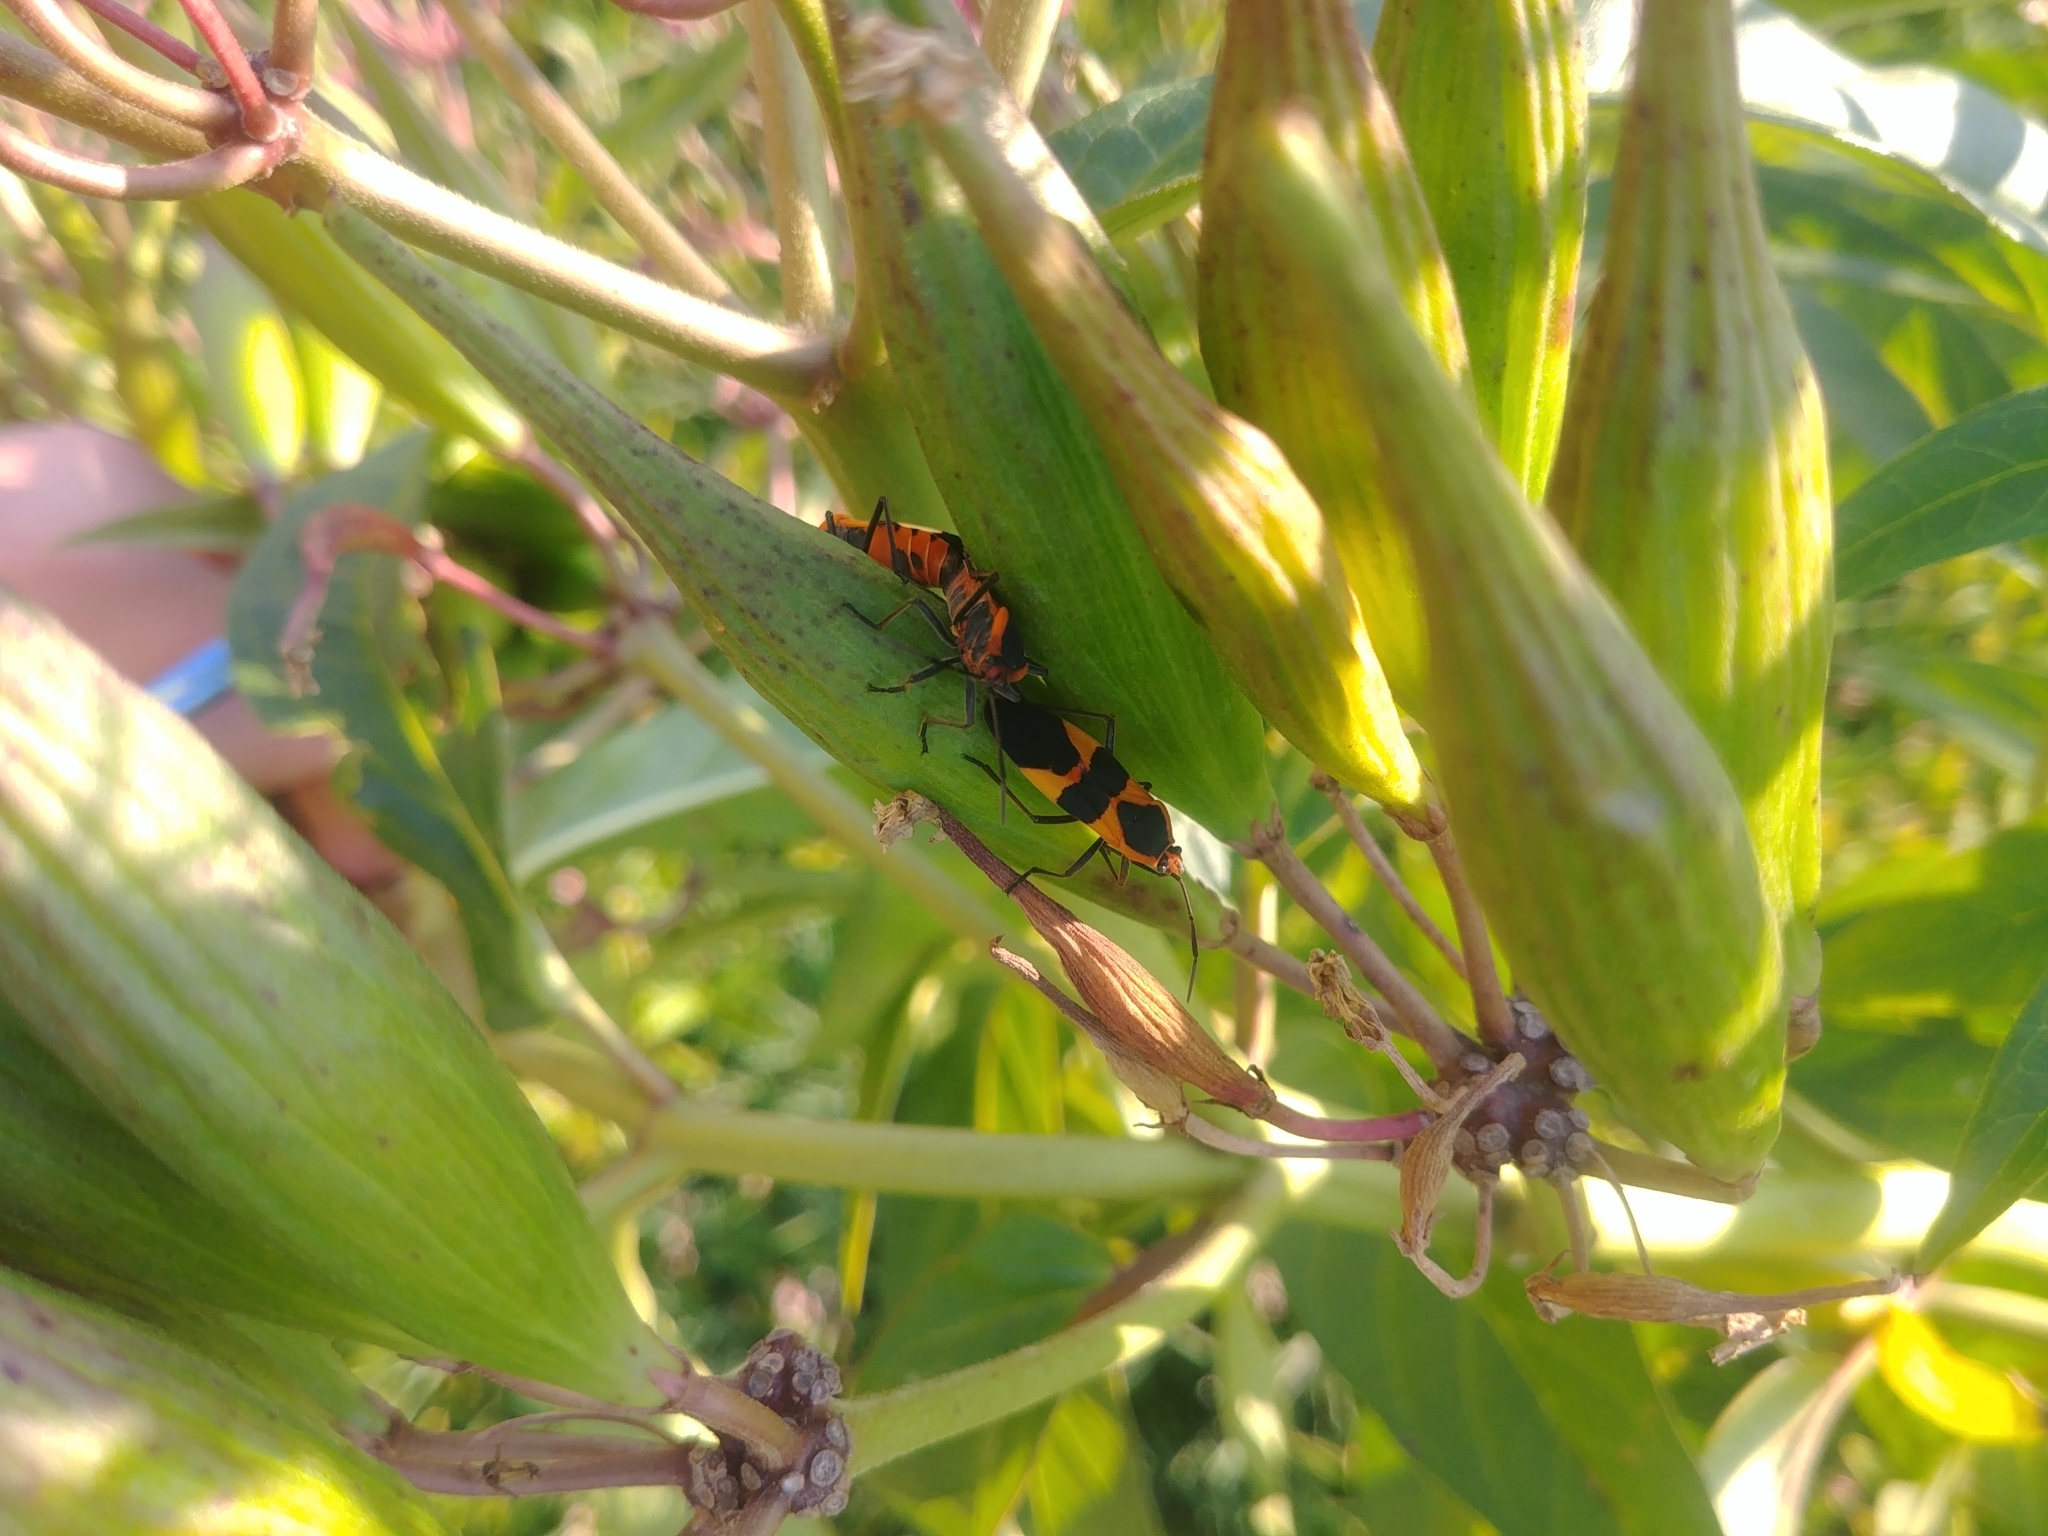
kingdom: Animalia
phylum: Arthropoda
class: Insecta
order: Hemiptera
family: Lygaeidae
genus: Oncopeltus
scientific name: Oncopeltus fasciatus
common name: Large milkweed bug
